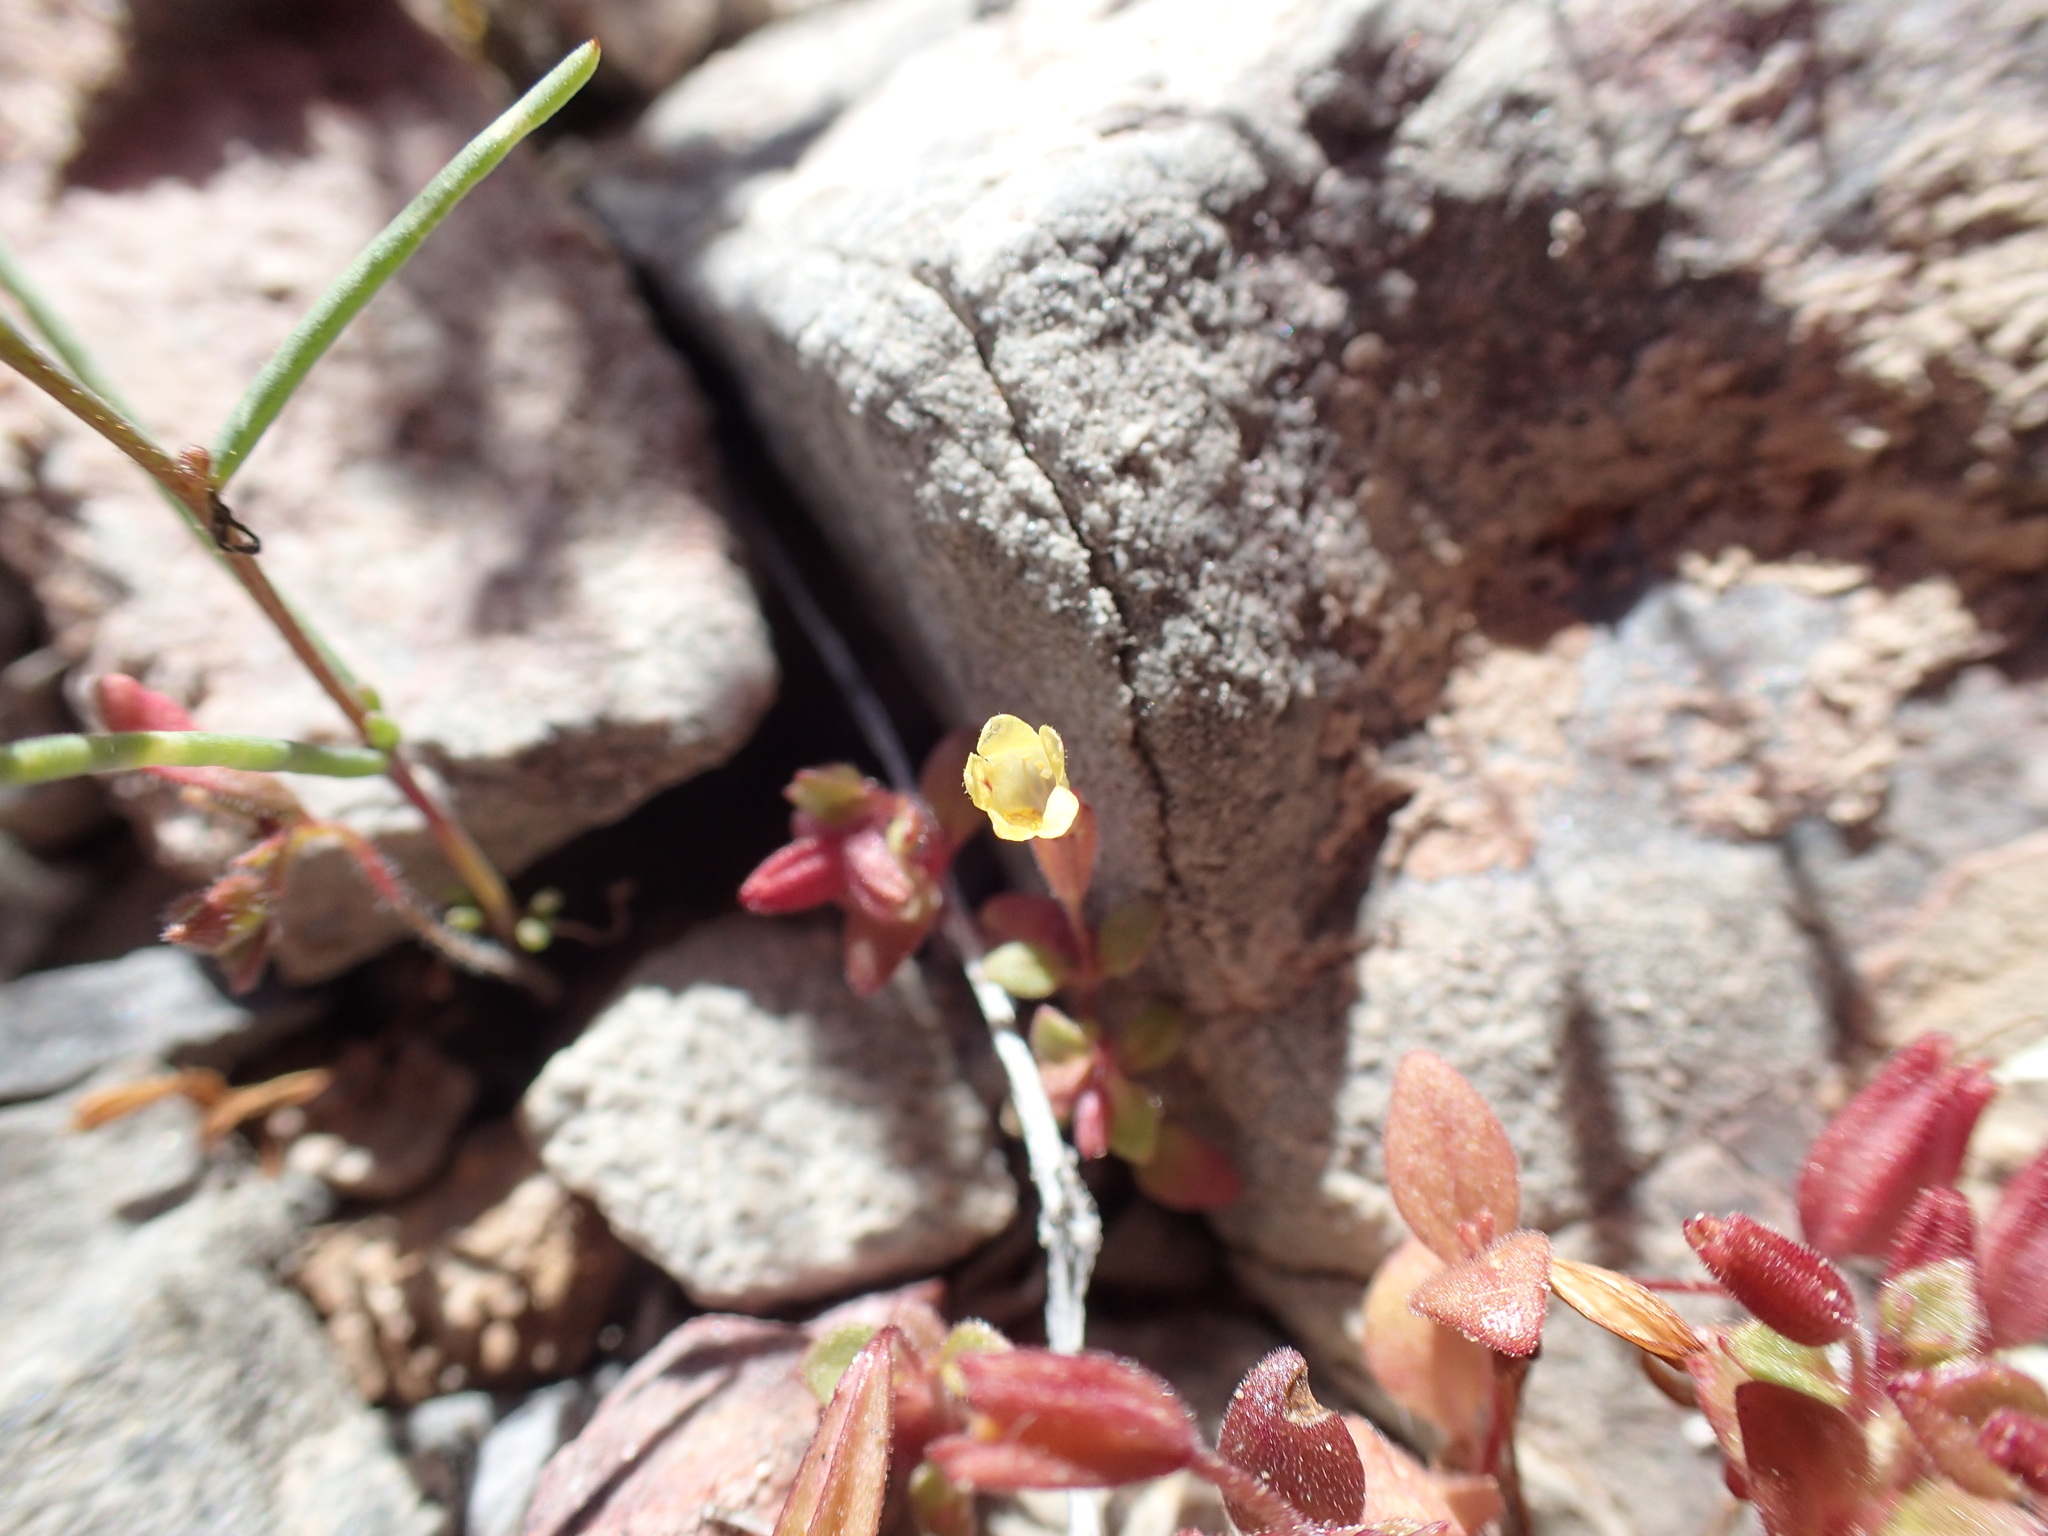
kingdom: Plantae
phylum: Tracheophyta
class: Magnoliopsida
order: Lamiales
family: Phrymaceae
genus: Erythranthe
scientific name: Erythranthe calcicola
